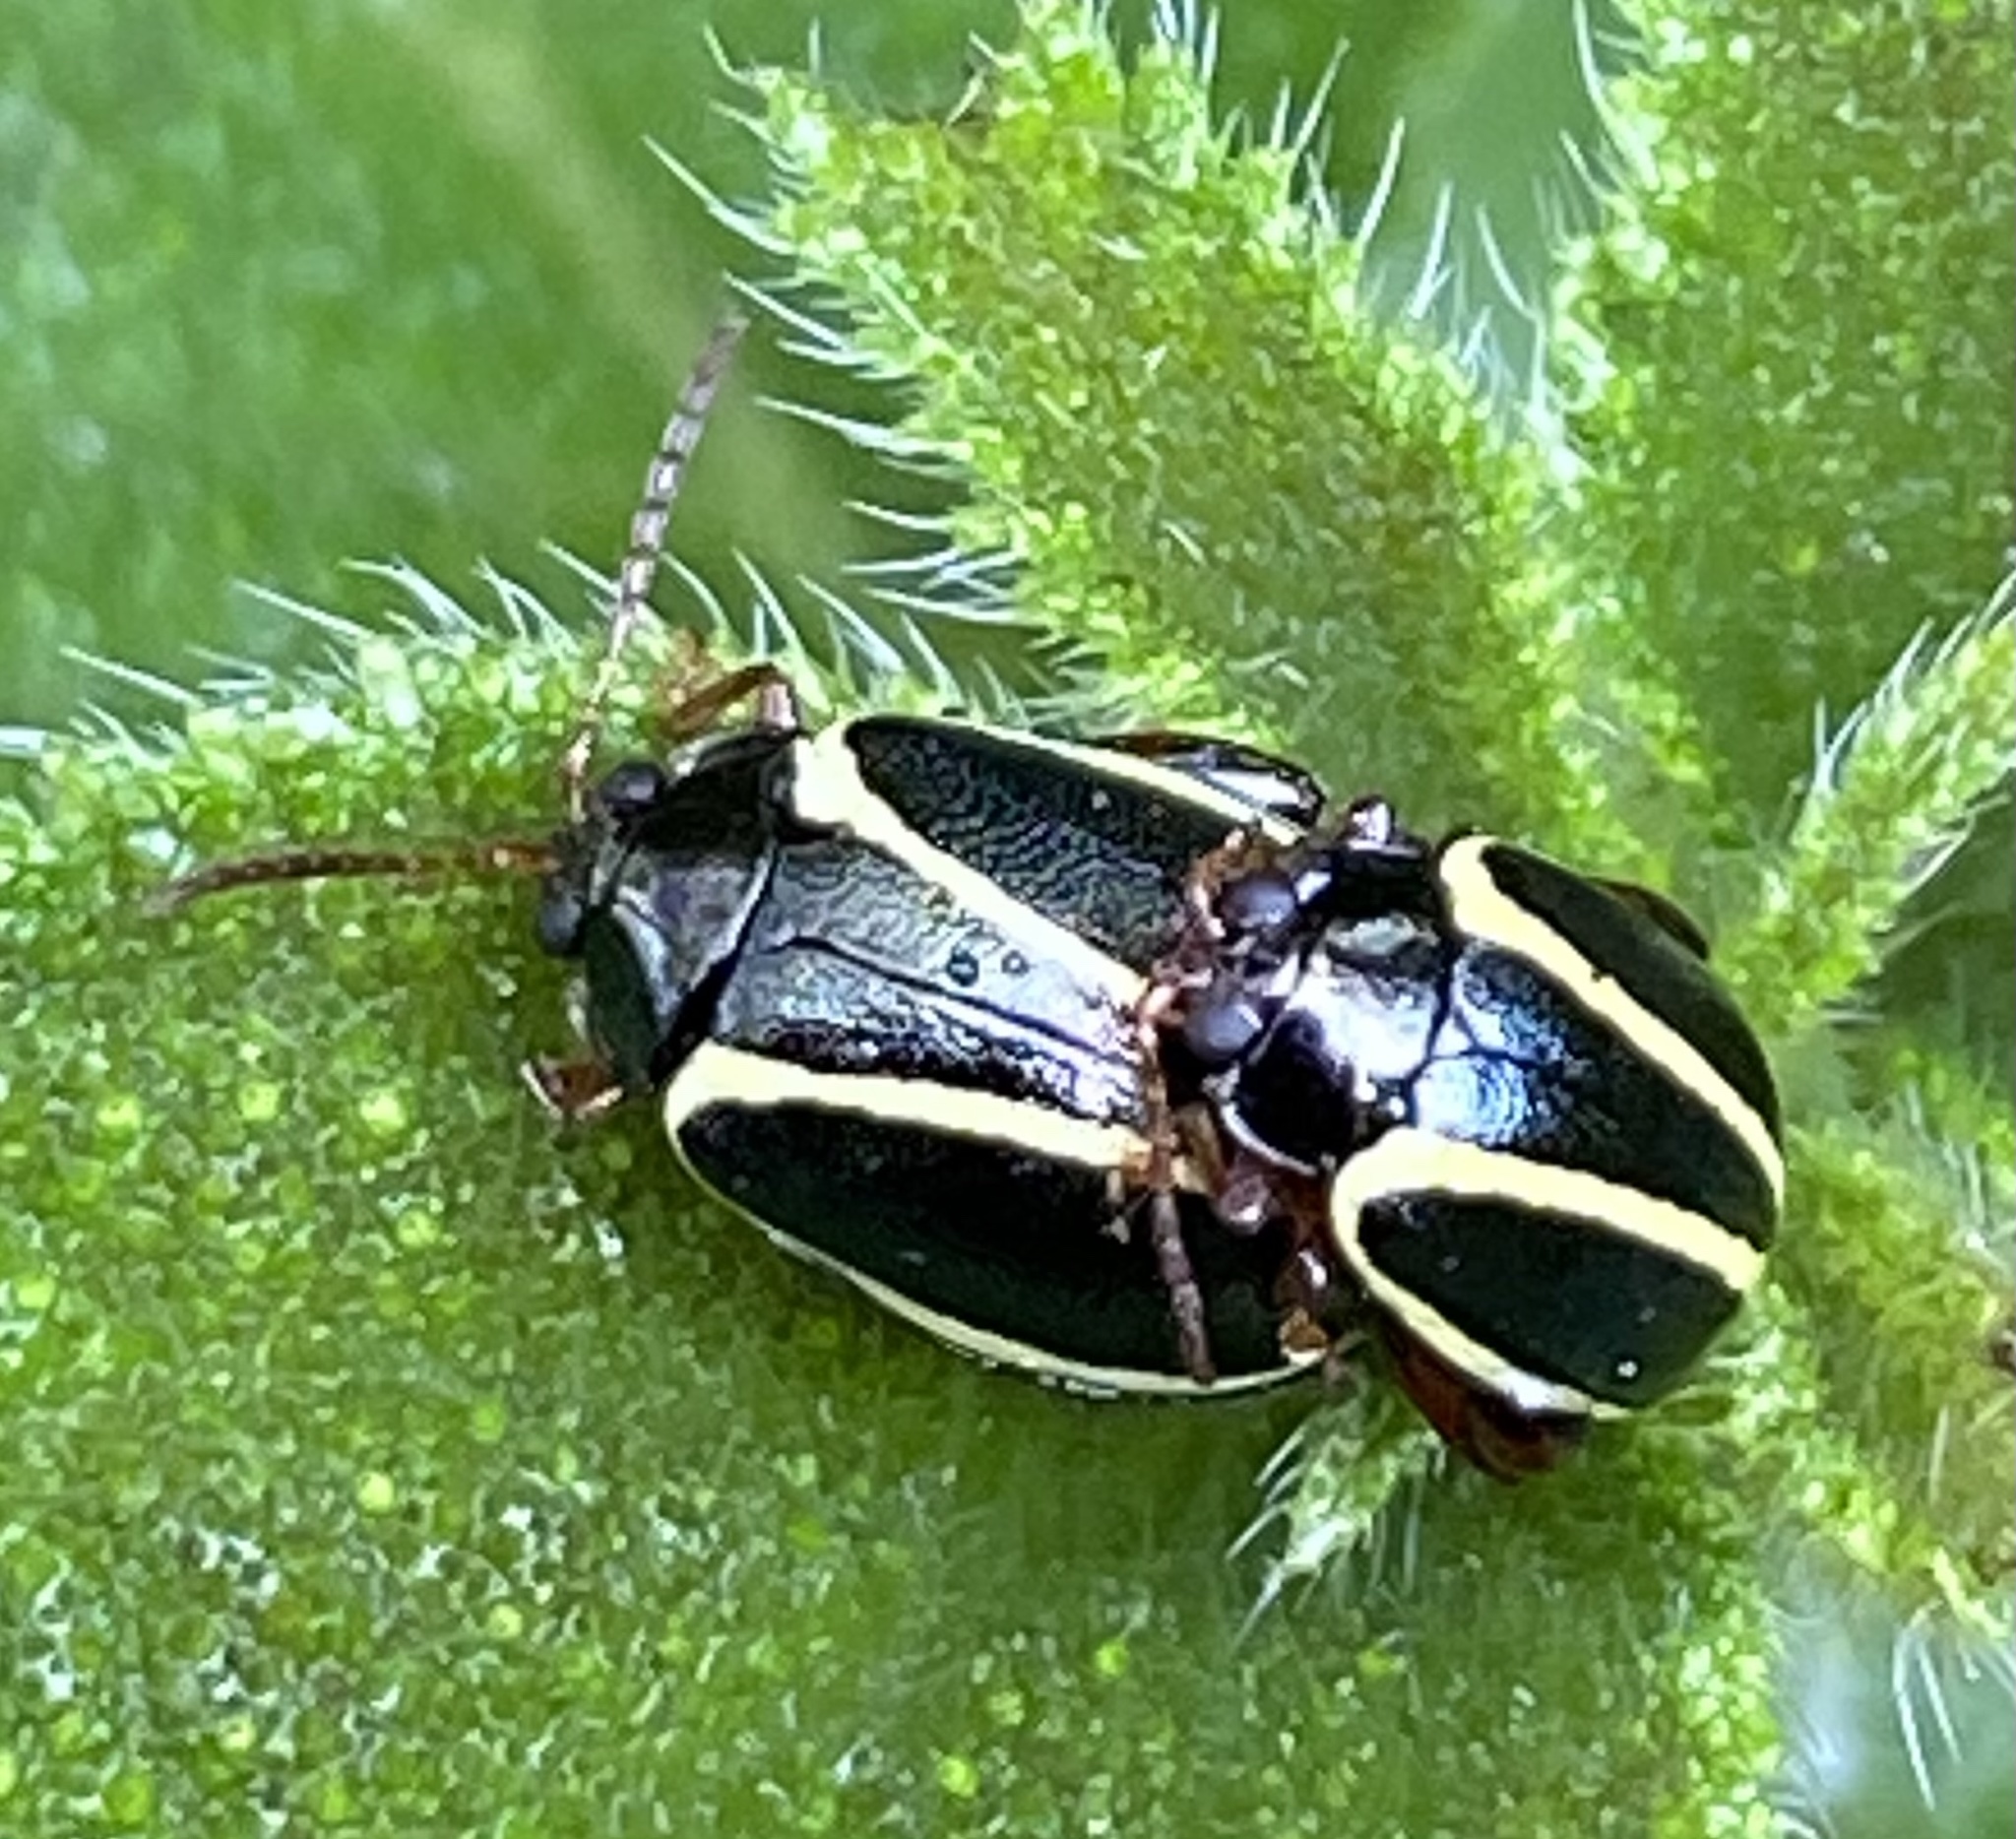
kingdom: Animalia
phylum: Arthropoda
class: Insecta
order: Coleoptera
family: Chrysomelidae
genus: Alagoasa
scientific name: Alagoasa
